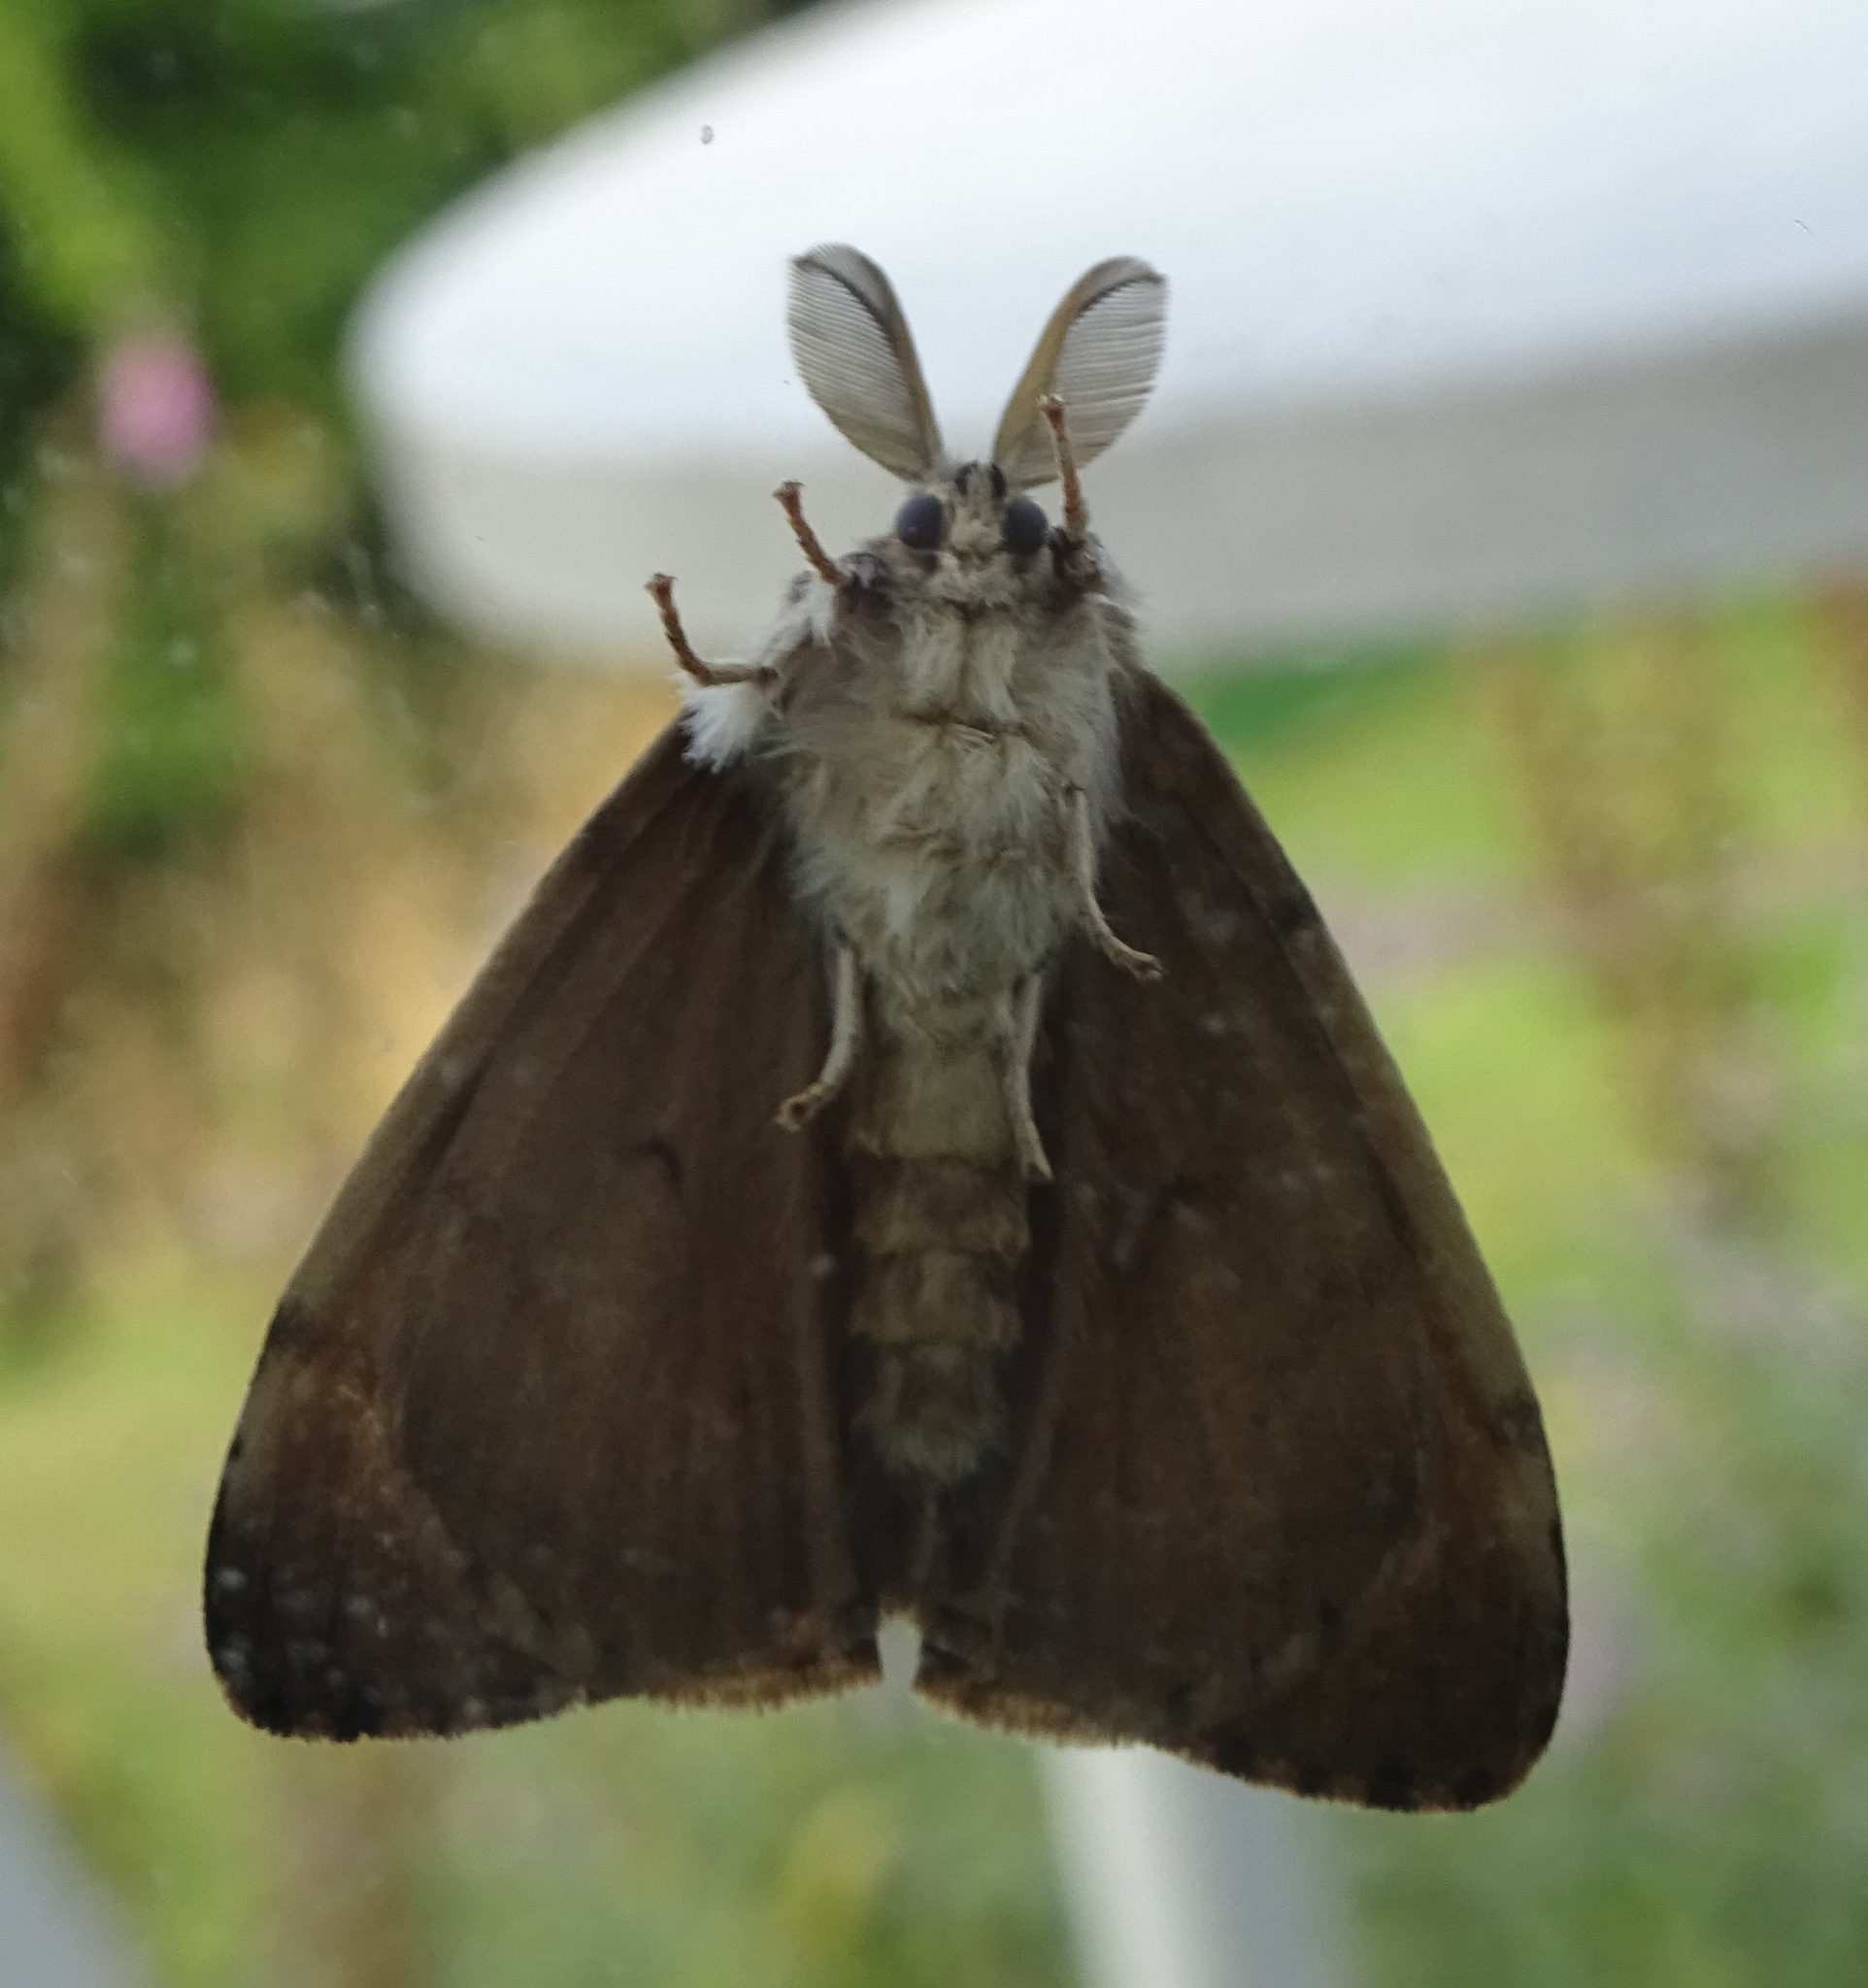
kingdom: Animalia
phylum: Arthropoda
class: Insecta
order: Lepidoptera
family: Erebidae
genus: Lymantria
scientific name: Lymantria dispar
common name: Gypsy moth
